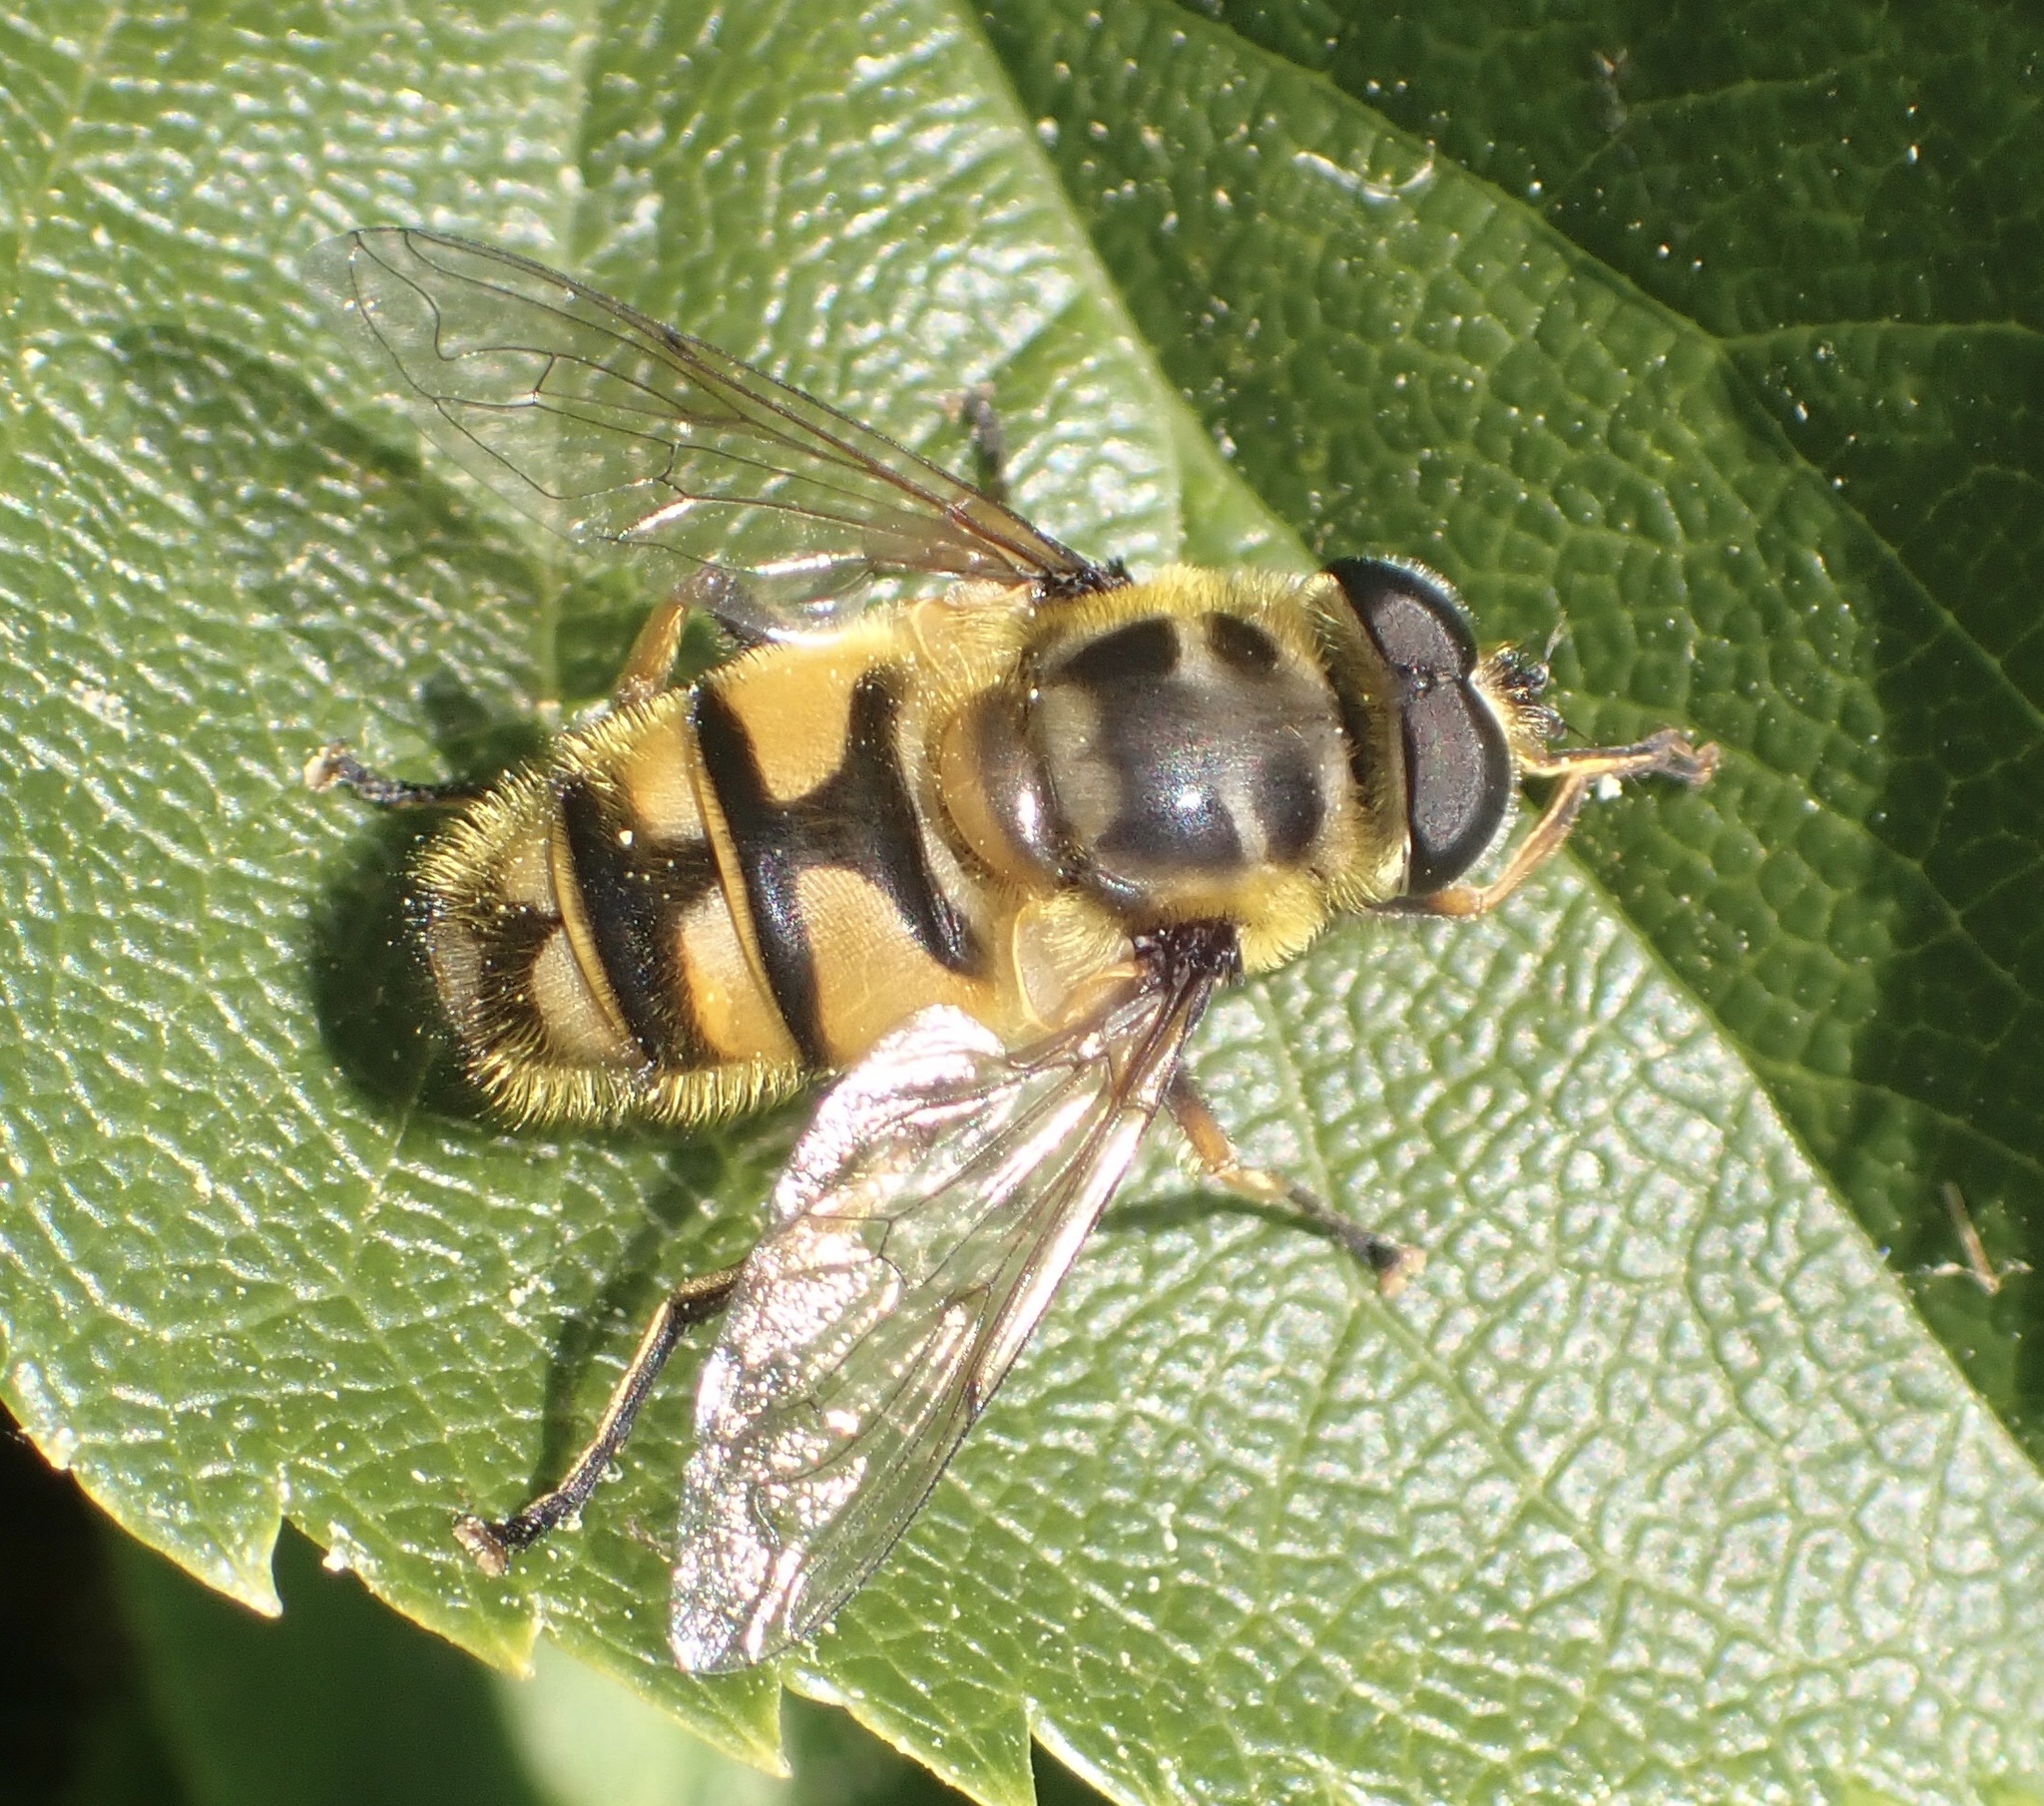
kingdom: Animalia
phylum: Arthropoda
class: Insecta
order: Diptera
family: Syrphidae
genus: Myathropa
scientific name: Myathropa florea
